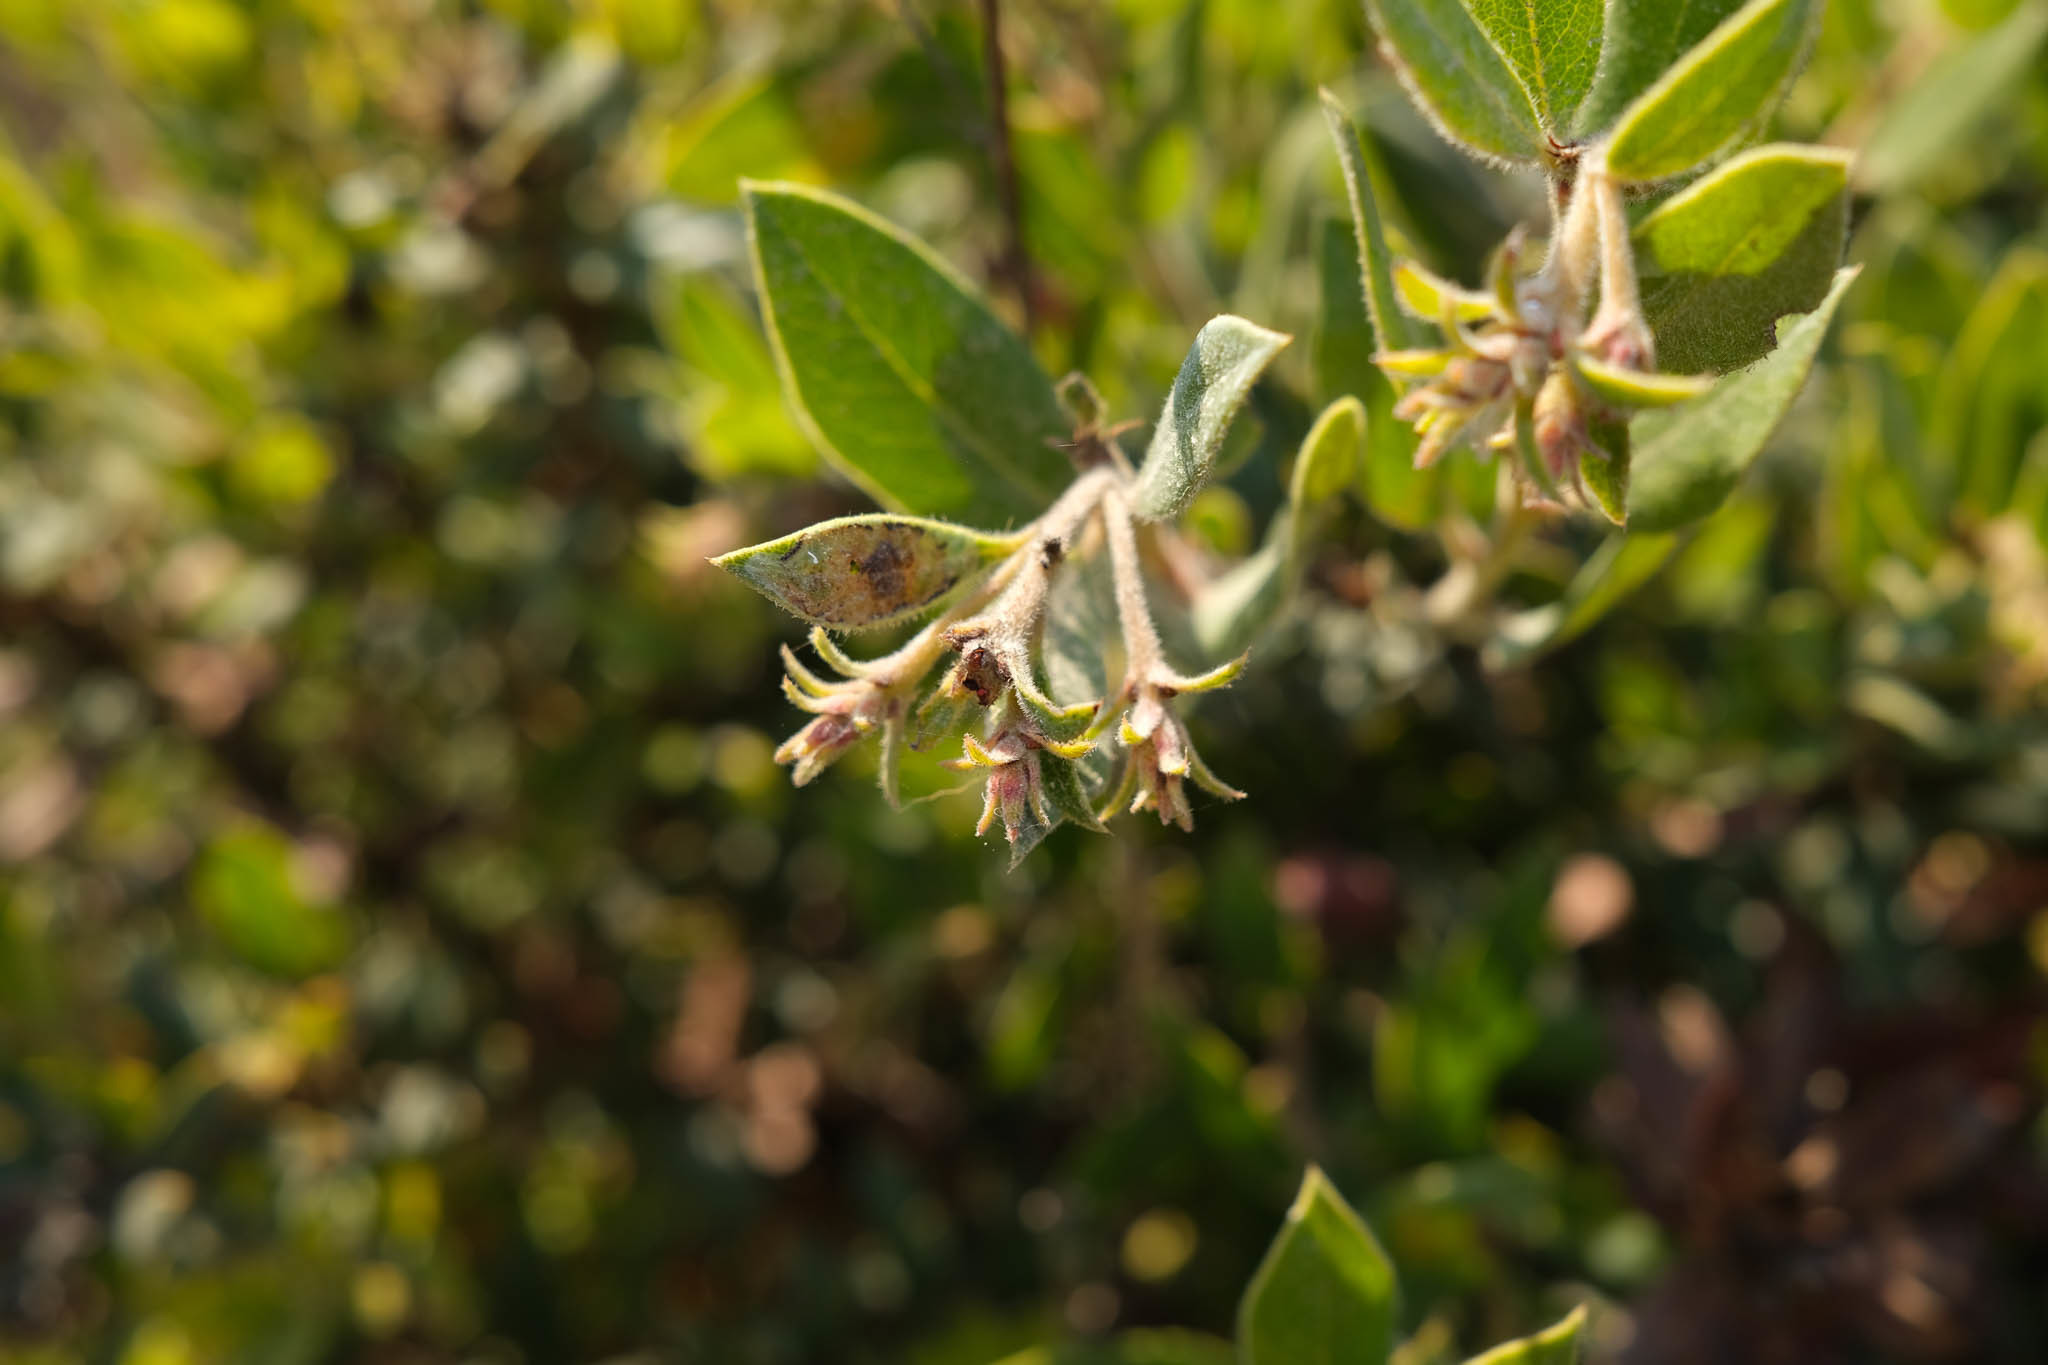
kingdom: Plantae
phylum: Tracheophyta
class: Magnoliopsida
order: Ericales
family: Ericaceae
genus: Arctostaphylos
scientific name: Arctostaphylos tomentosa
